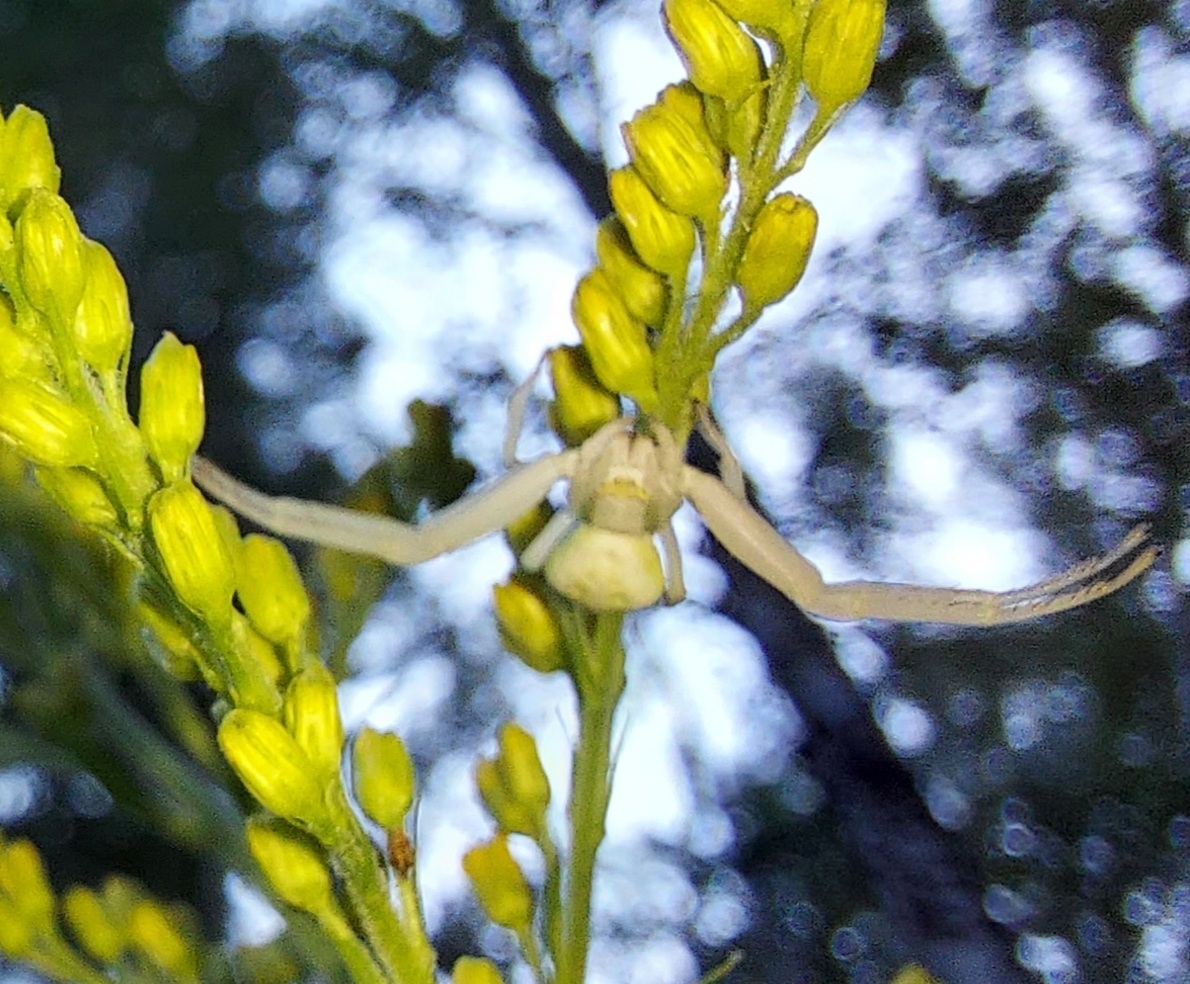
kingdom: Animalia
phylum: Arthropoda
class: Arachnida
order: Araneae
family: Thomisidae
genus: Misumena
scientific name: Misumena vatia
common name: Goldenrod crab spider
